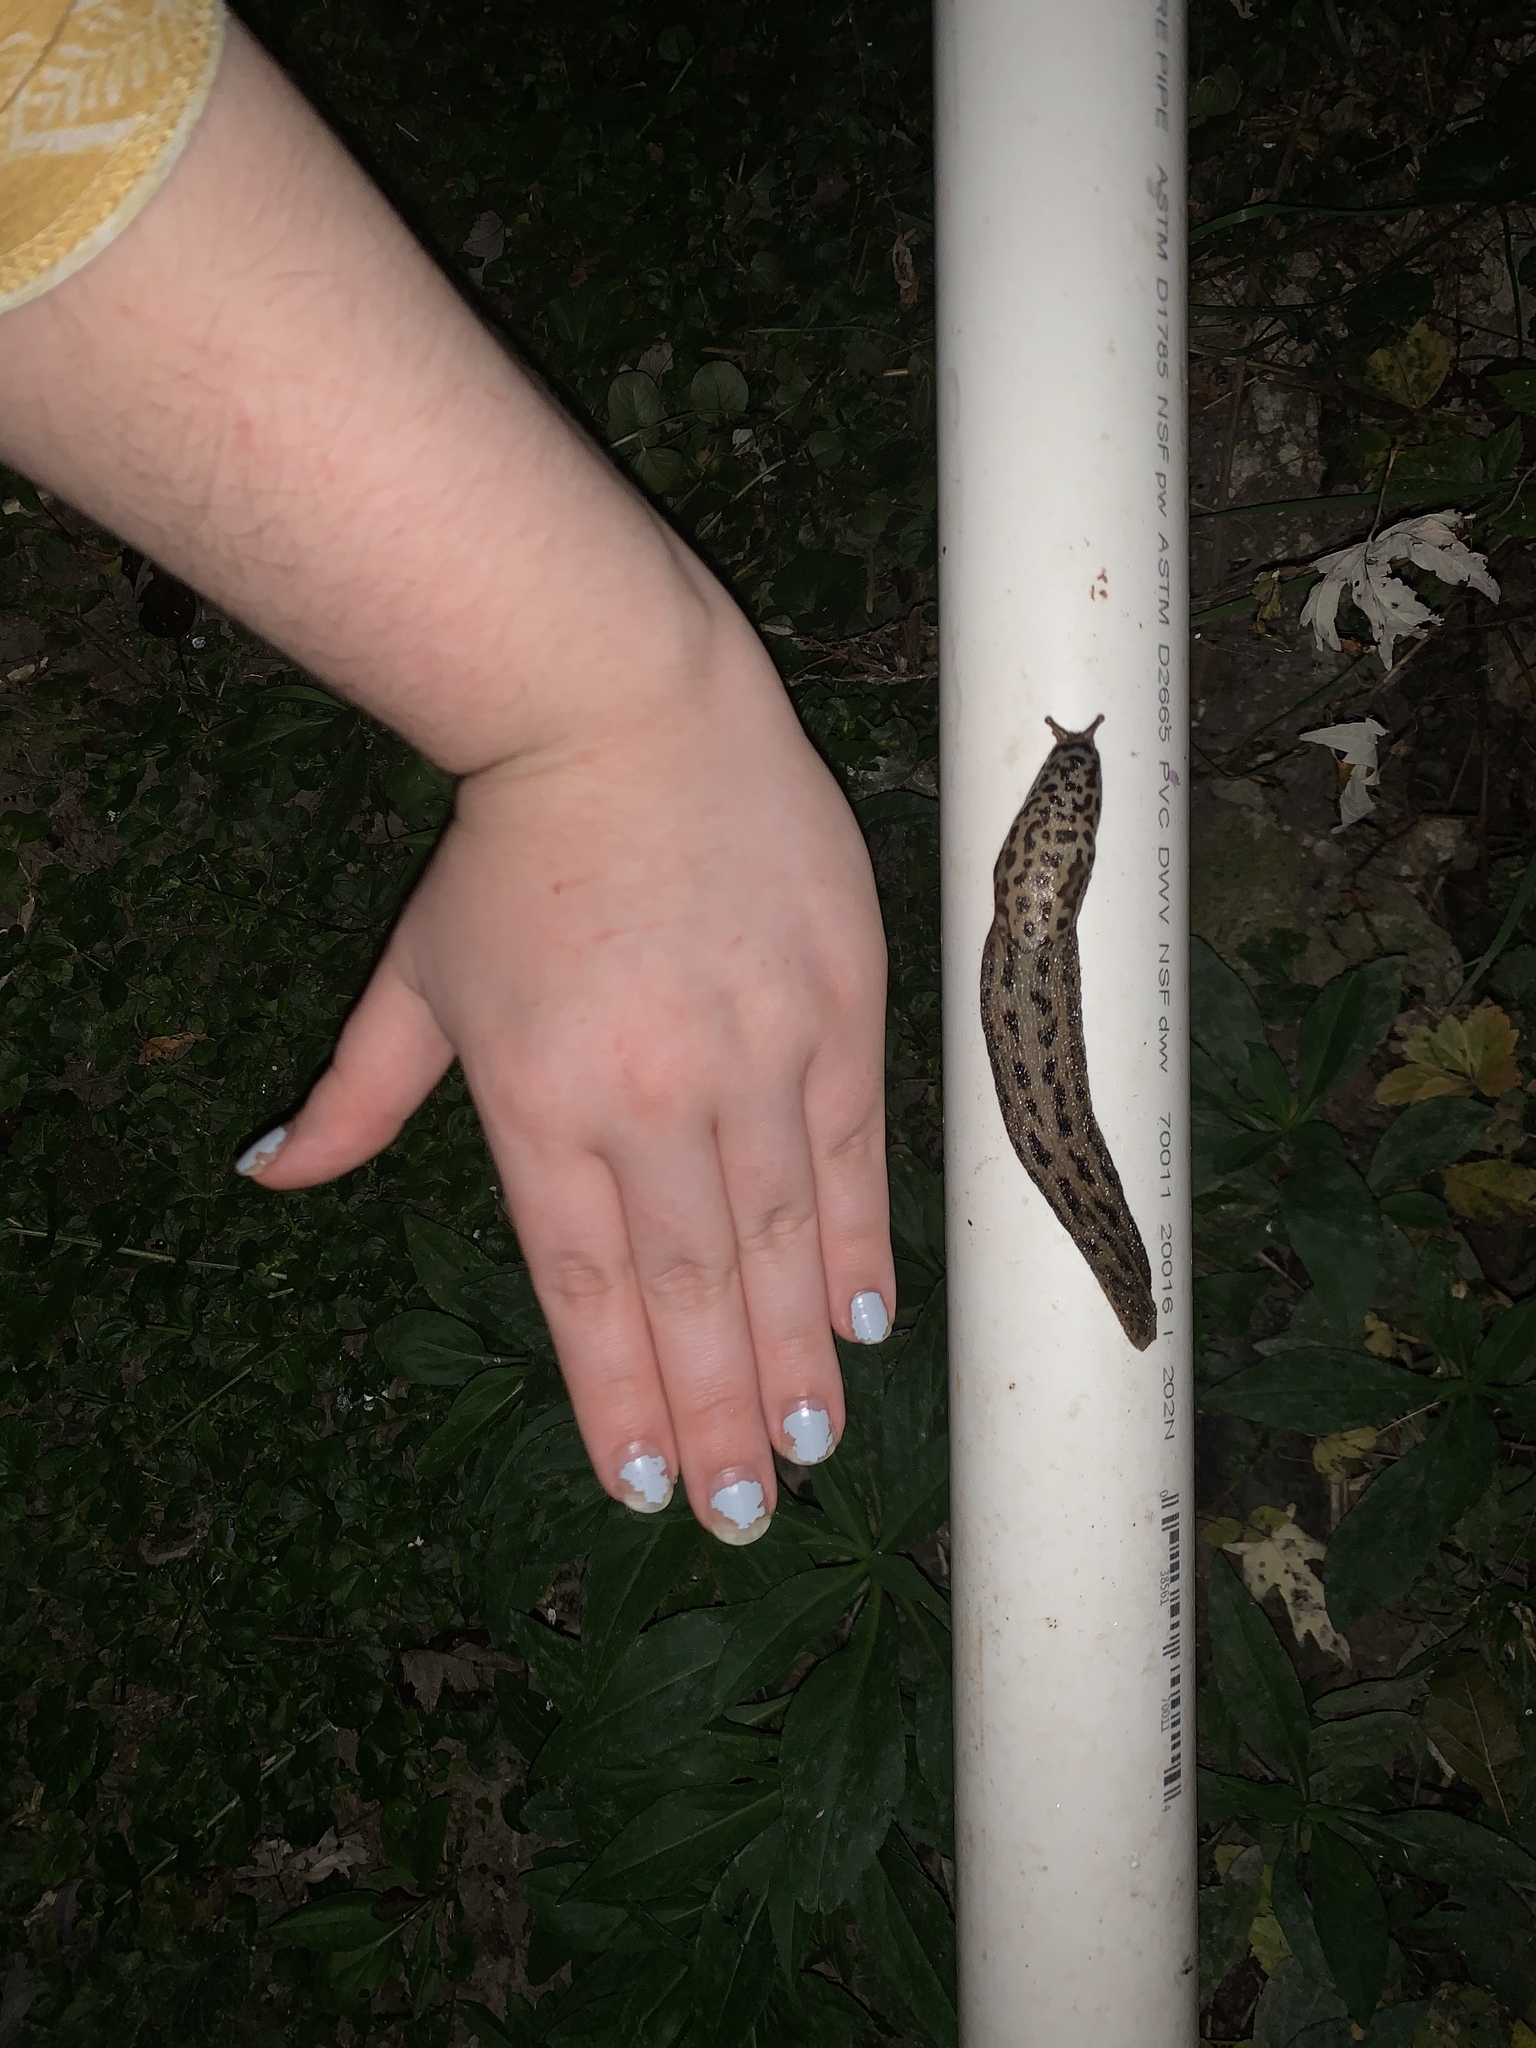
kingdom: Animalia
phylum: Mollusca
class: Gastropoda
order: Stylommatophora
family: Limacidae
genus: Limax
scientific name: Limax maximus
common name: Great grey slug
